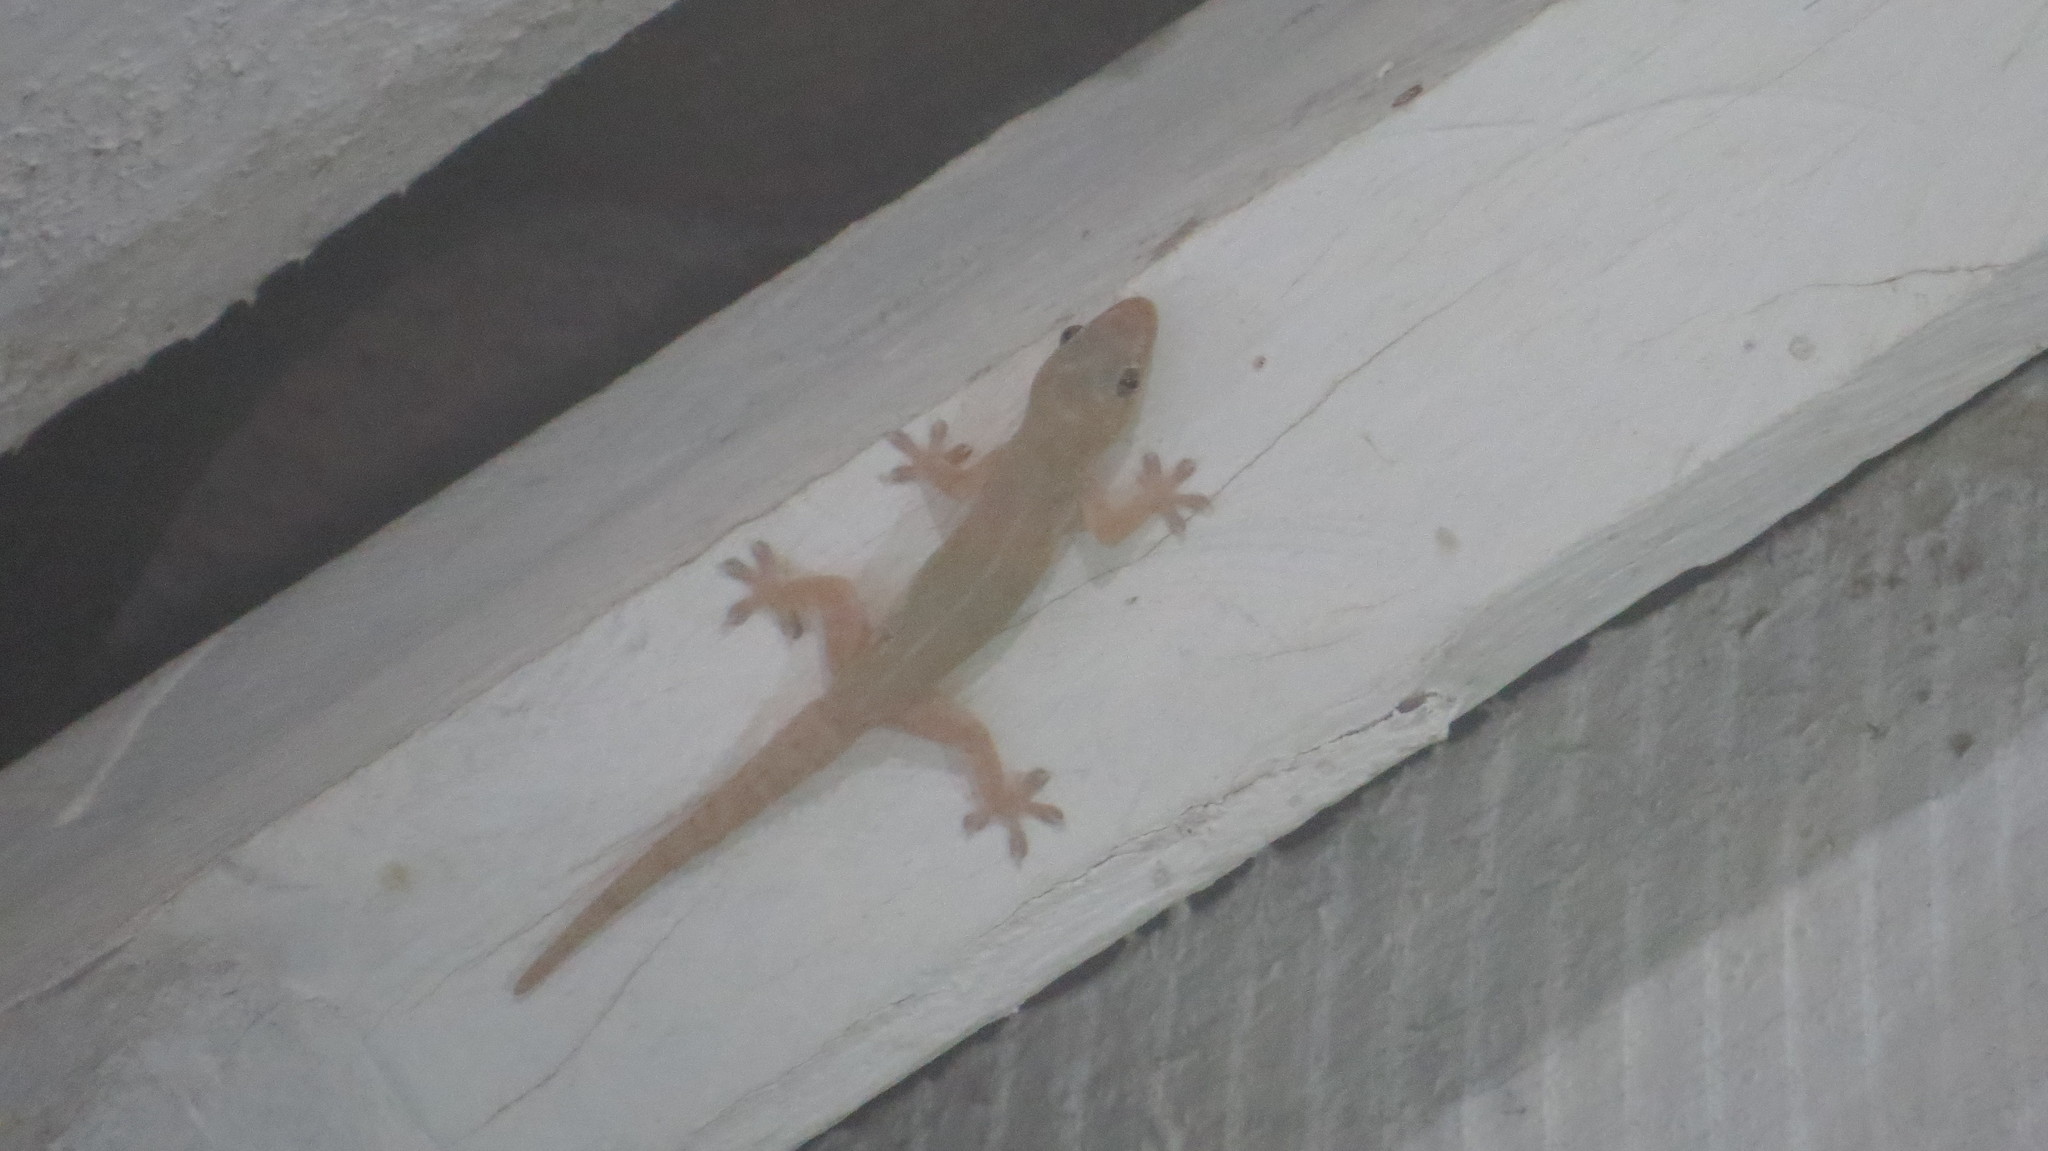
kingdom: Animalia
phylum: Chordata
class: Squamata
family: Gekkonidae
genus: Hemidactylus
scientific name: Hemidactylus frenatus
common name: Common house gecko
